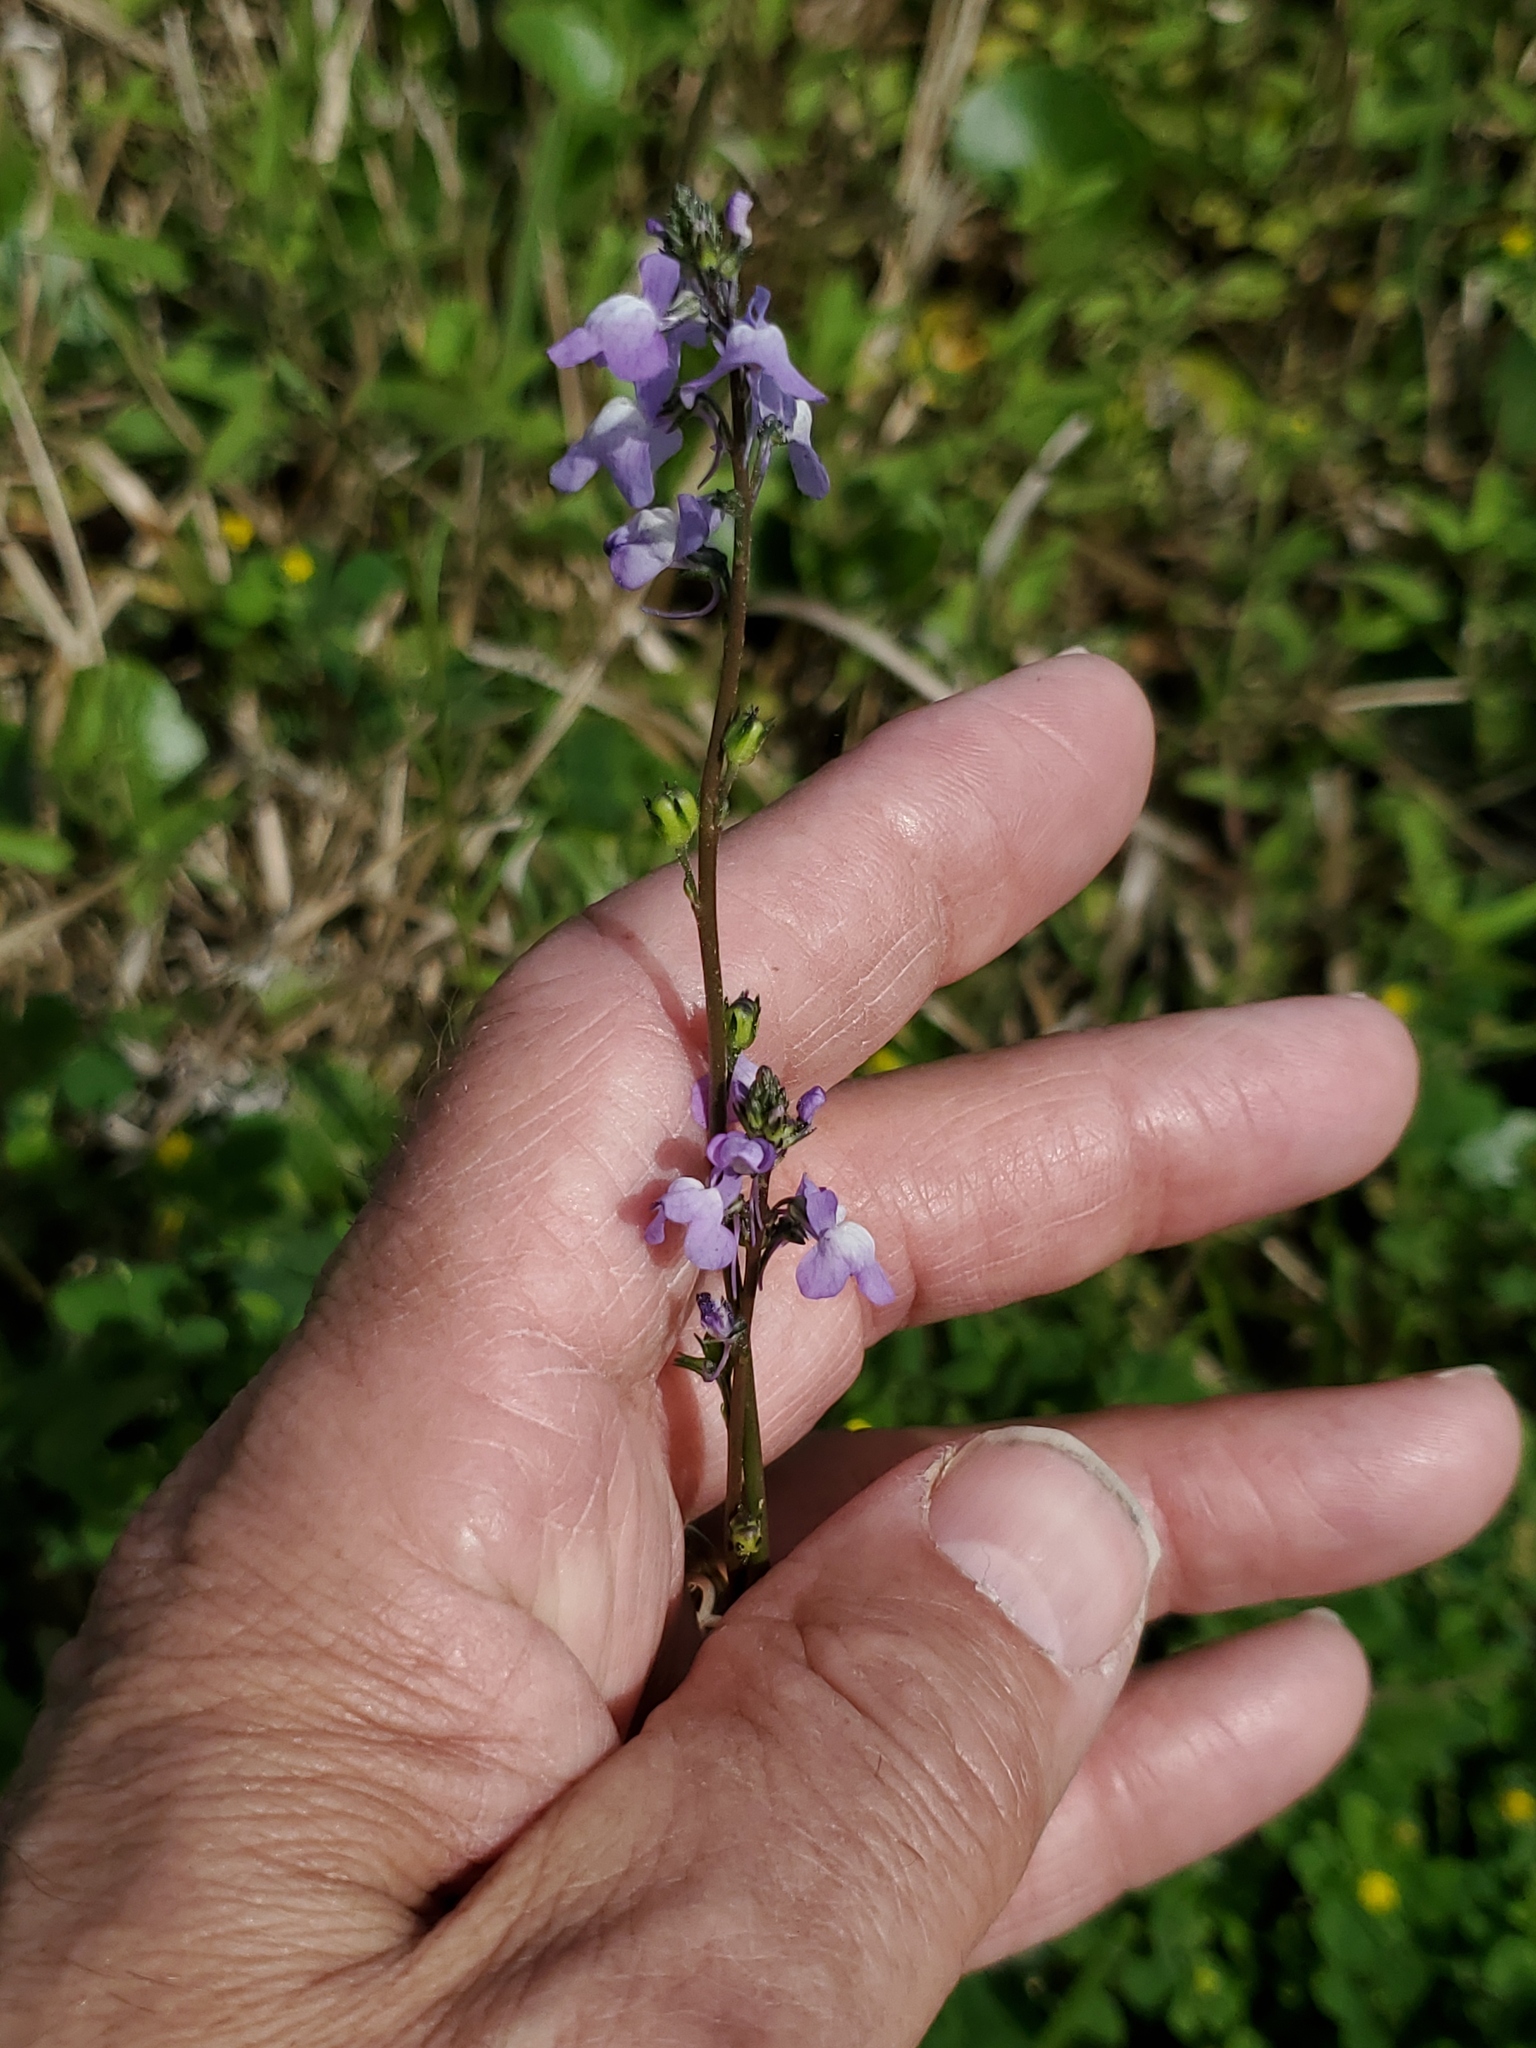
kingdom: Plantae
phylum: Tracheophyta
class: Magnoliopsida
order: Lamiales
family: Plantaginaceae
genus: Nuttallanthus
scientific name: Nuttallanthus canadensis
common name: Blue toadflax
